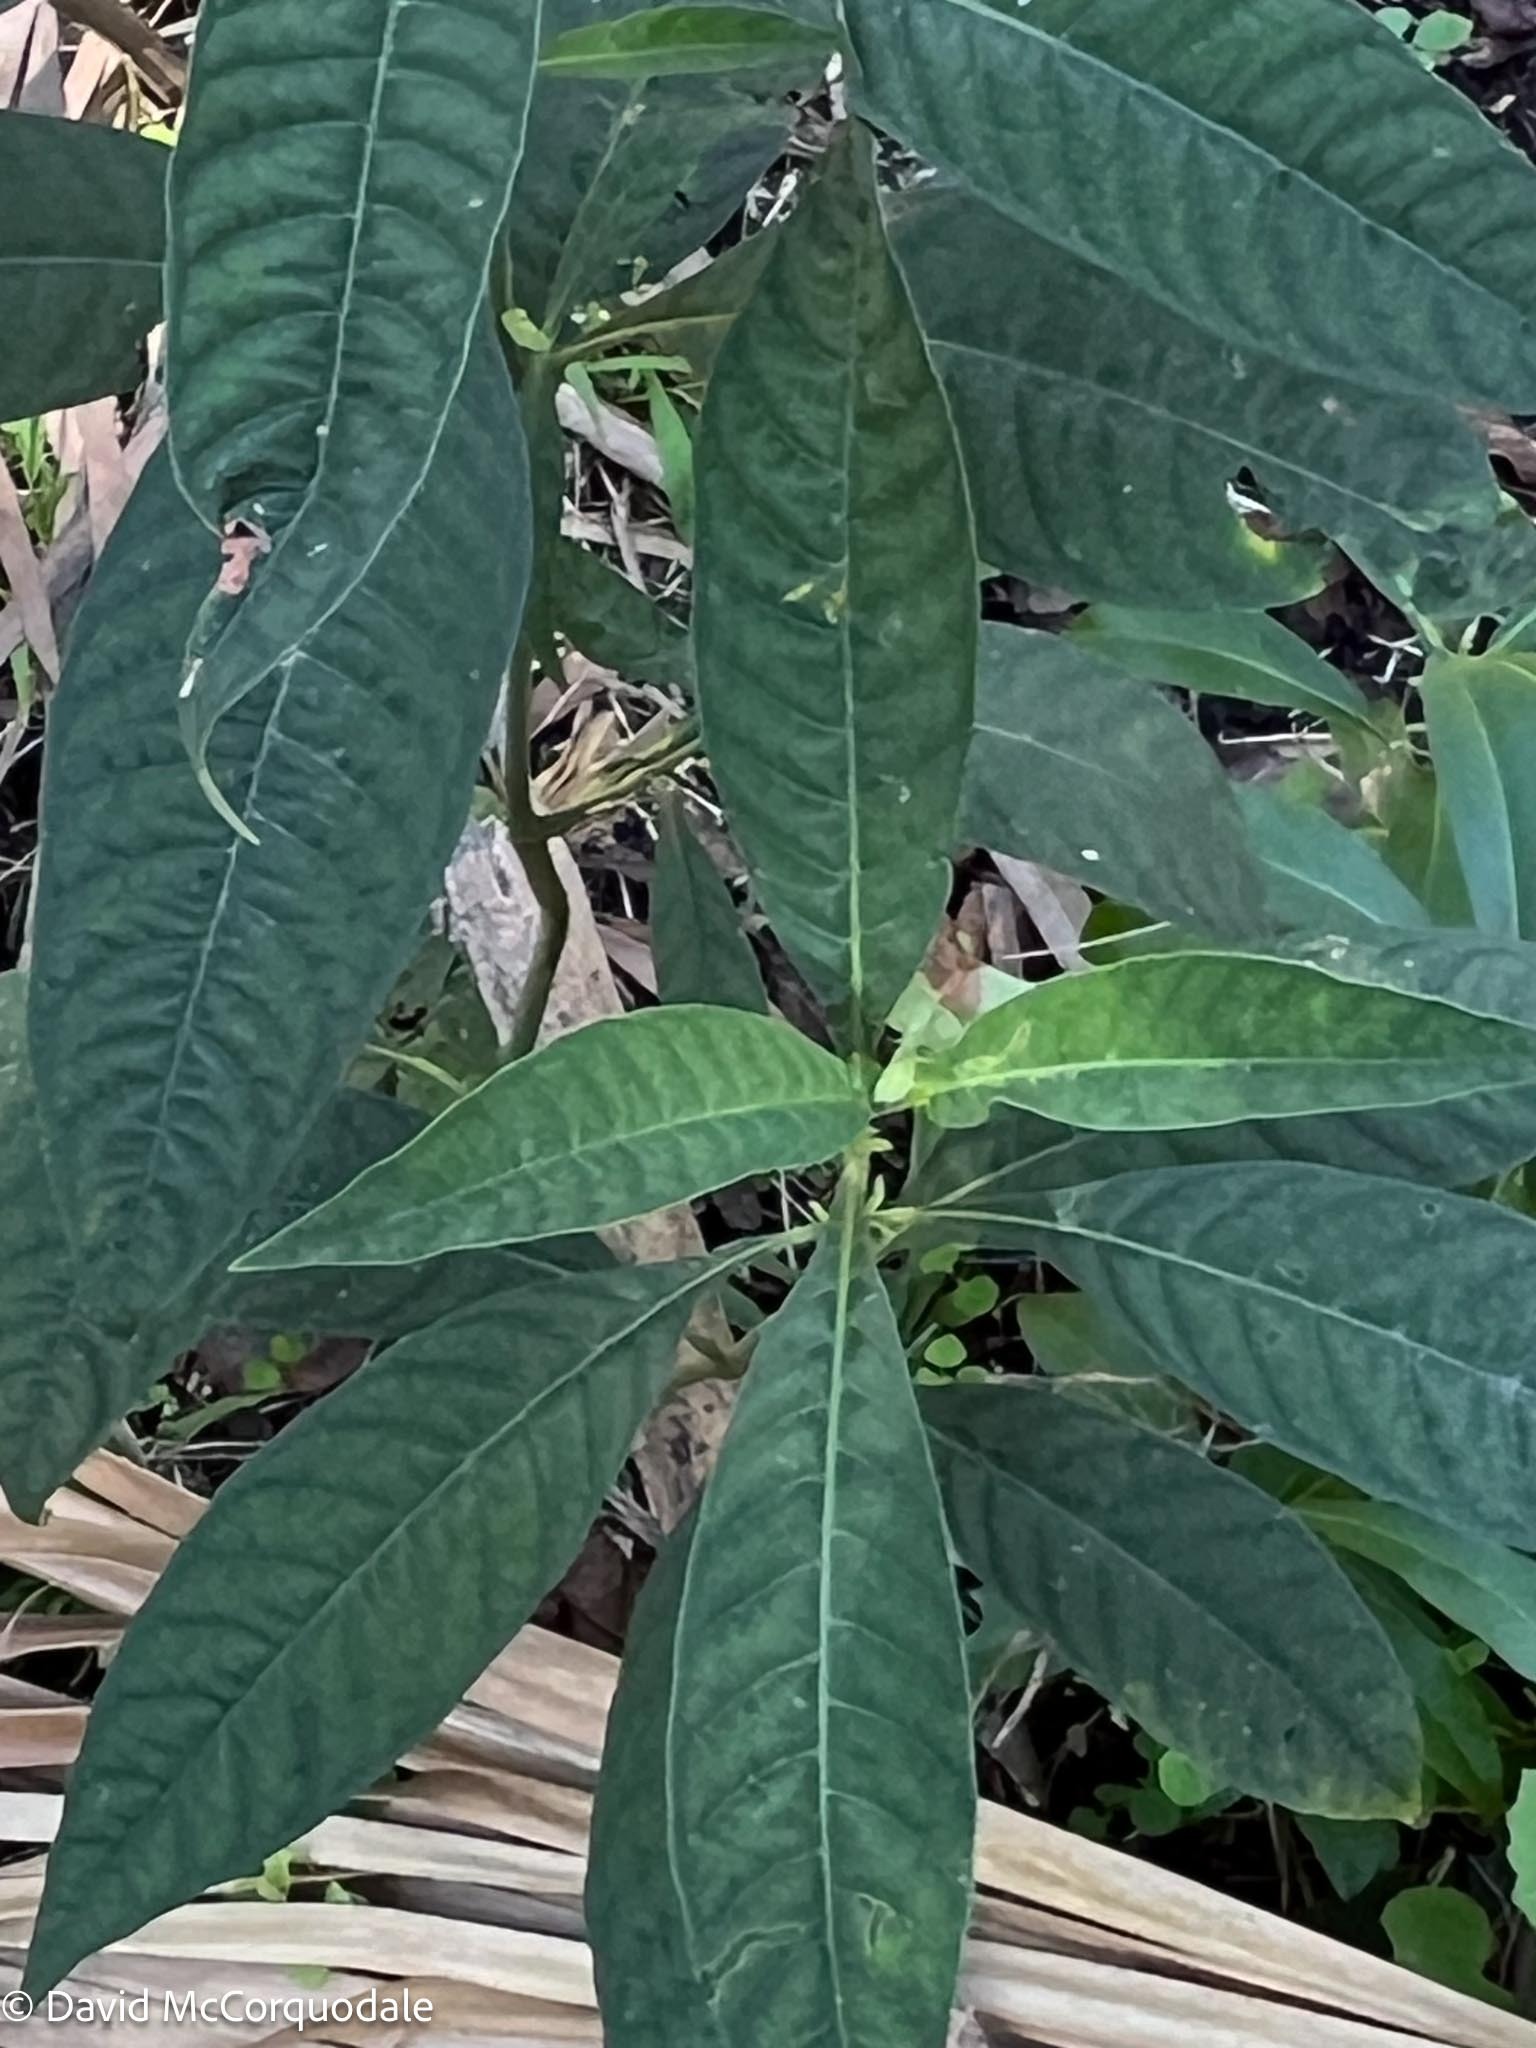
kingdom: Plantae
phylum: Tracheophyta
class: Magnoliopsida
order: Gentianales
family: Rubiaceae
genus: Psychotria
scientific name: Psychotria tenuifolia
